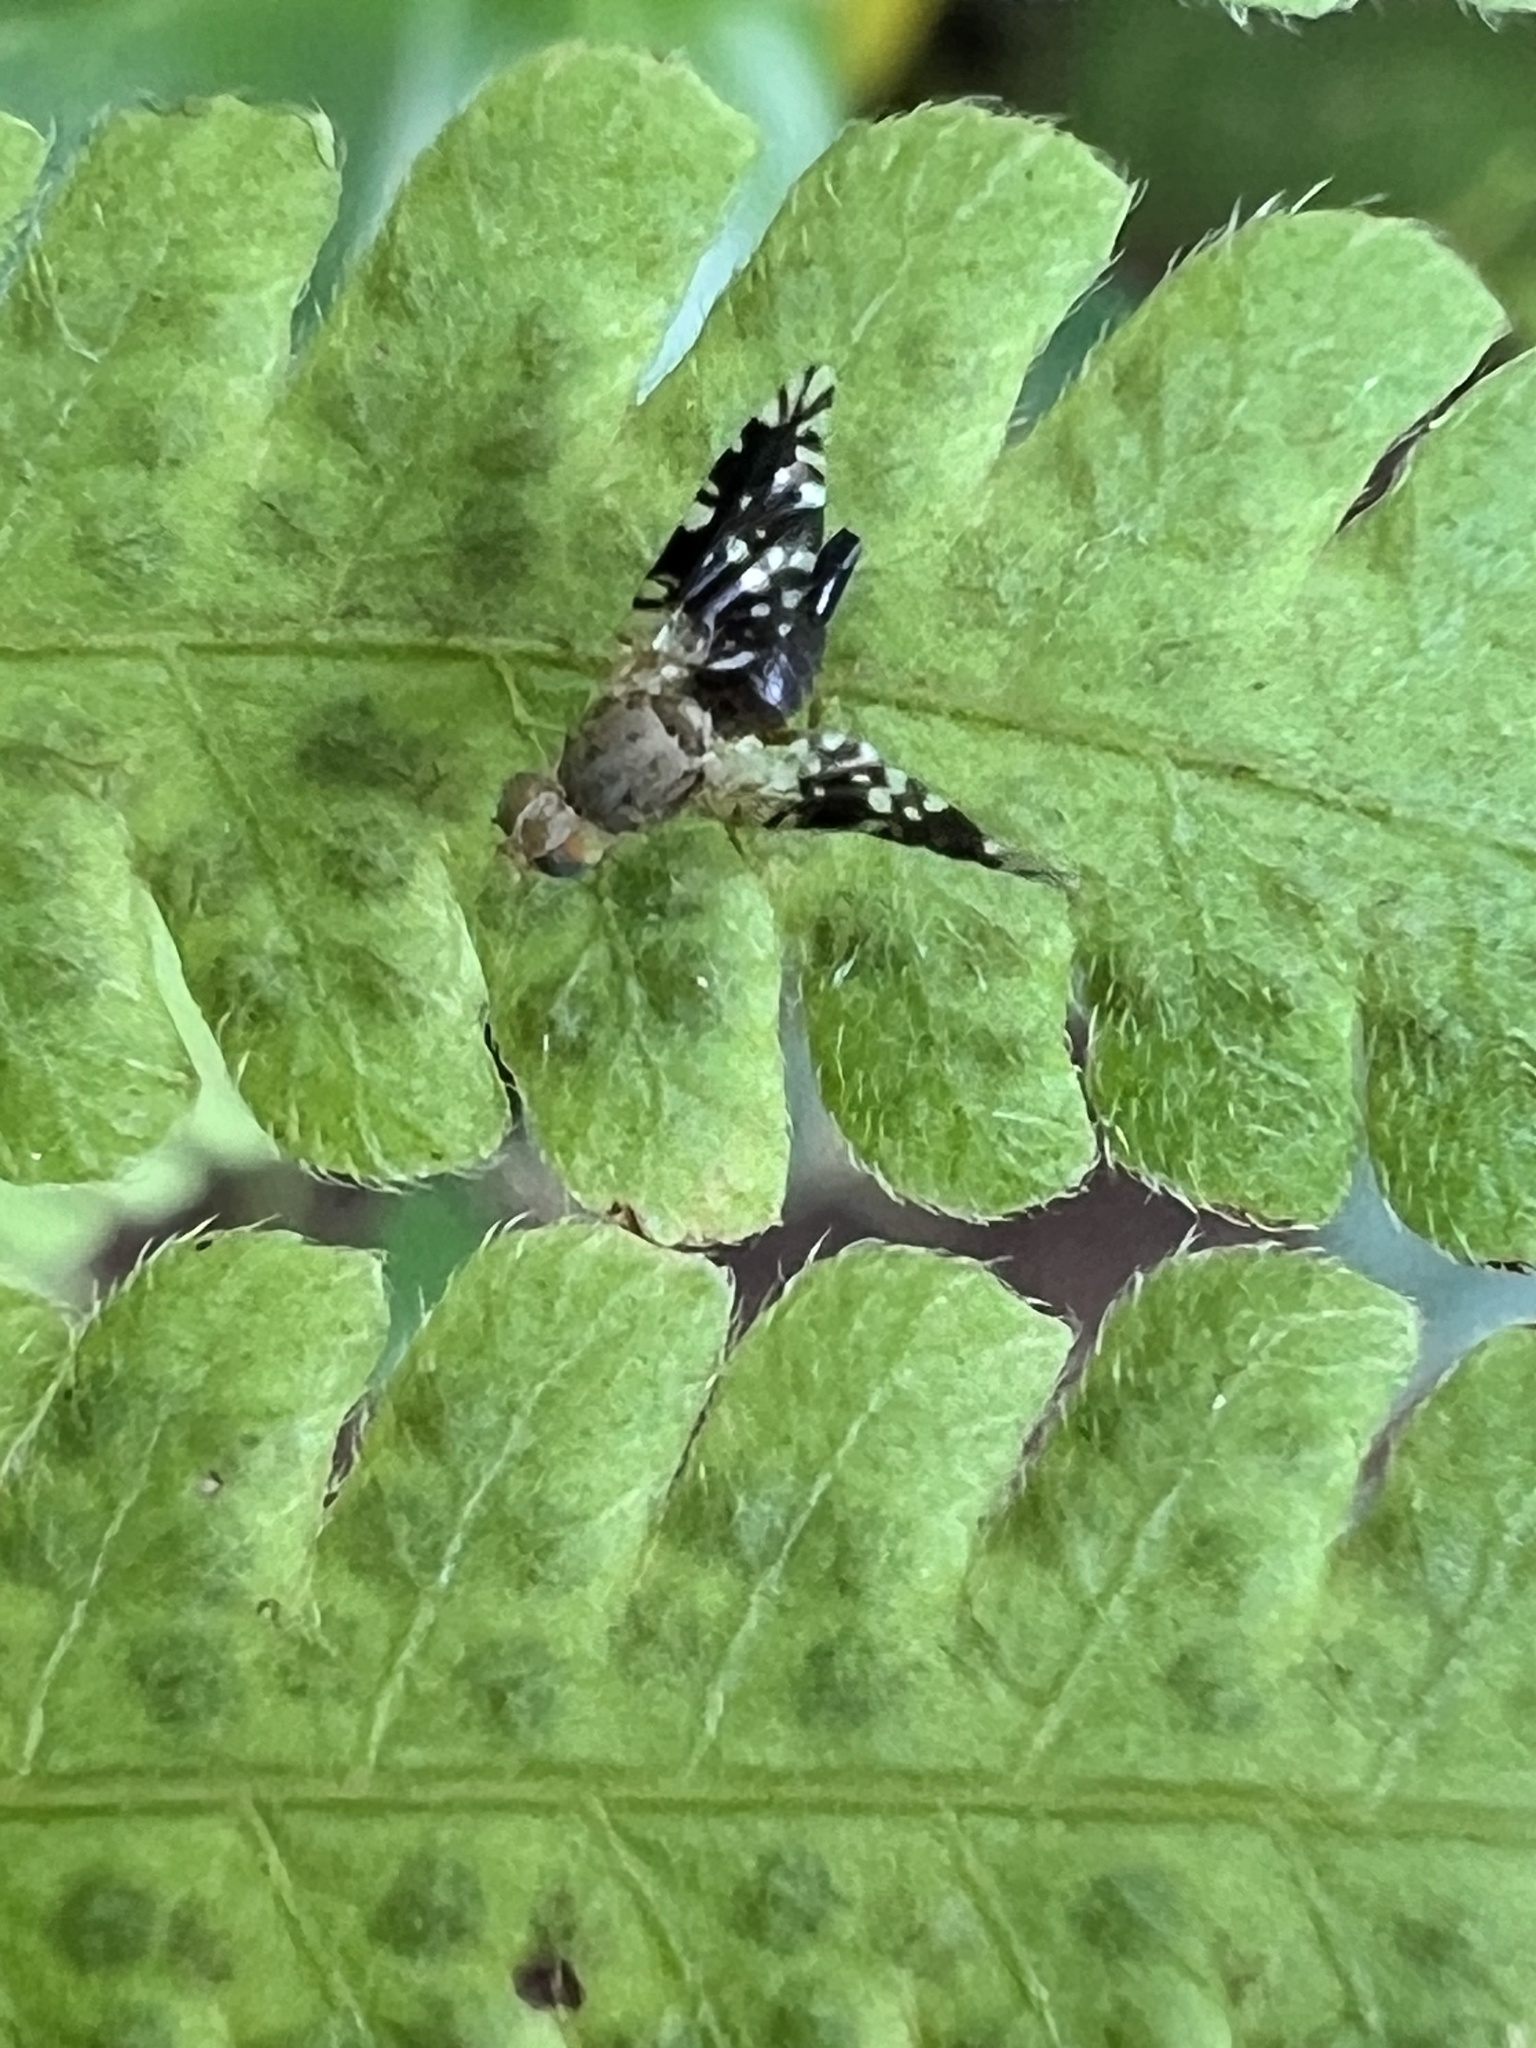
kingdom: Animalia
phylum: Arthropoda
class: Insecta
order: Diptera
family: Tephritidae
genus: Tetreuaresta
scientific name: Tetreuaresta obscuriventris
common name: Fruit fly
